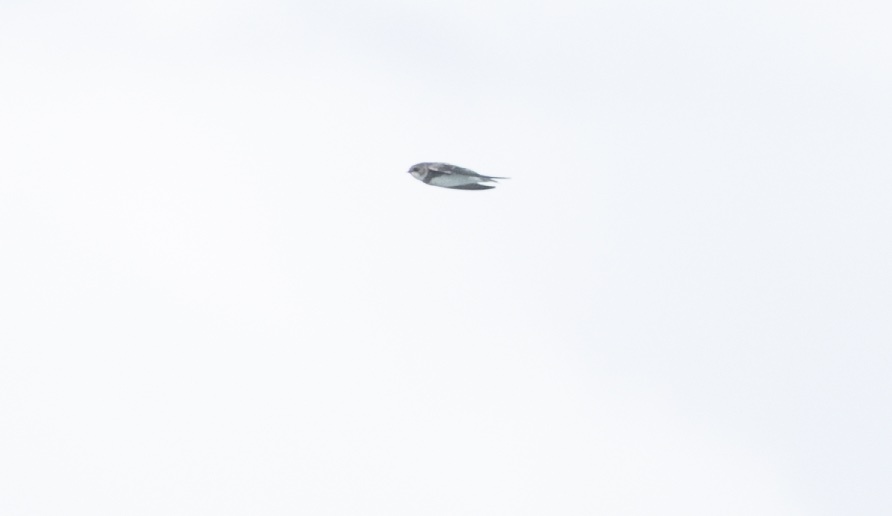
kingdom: Animalia
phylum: Chordata
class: Aves
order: Passeriformes
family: Hirundinidae
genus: Riparia
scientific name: Riparia riparia
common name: Sand martin
